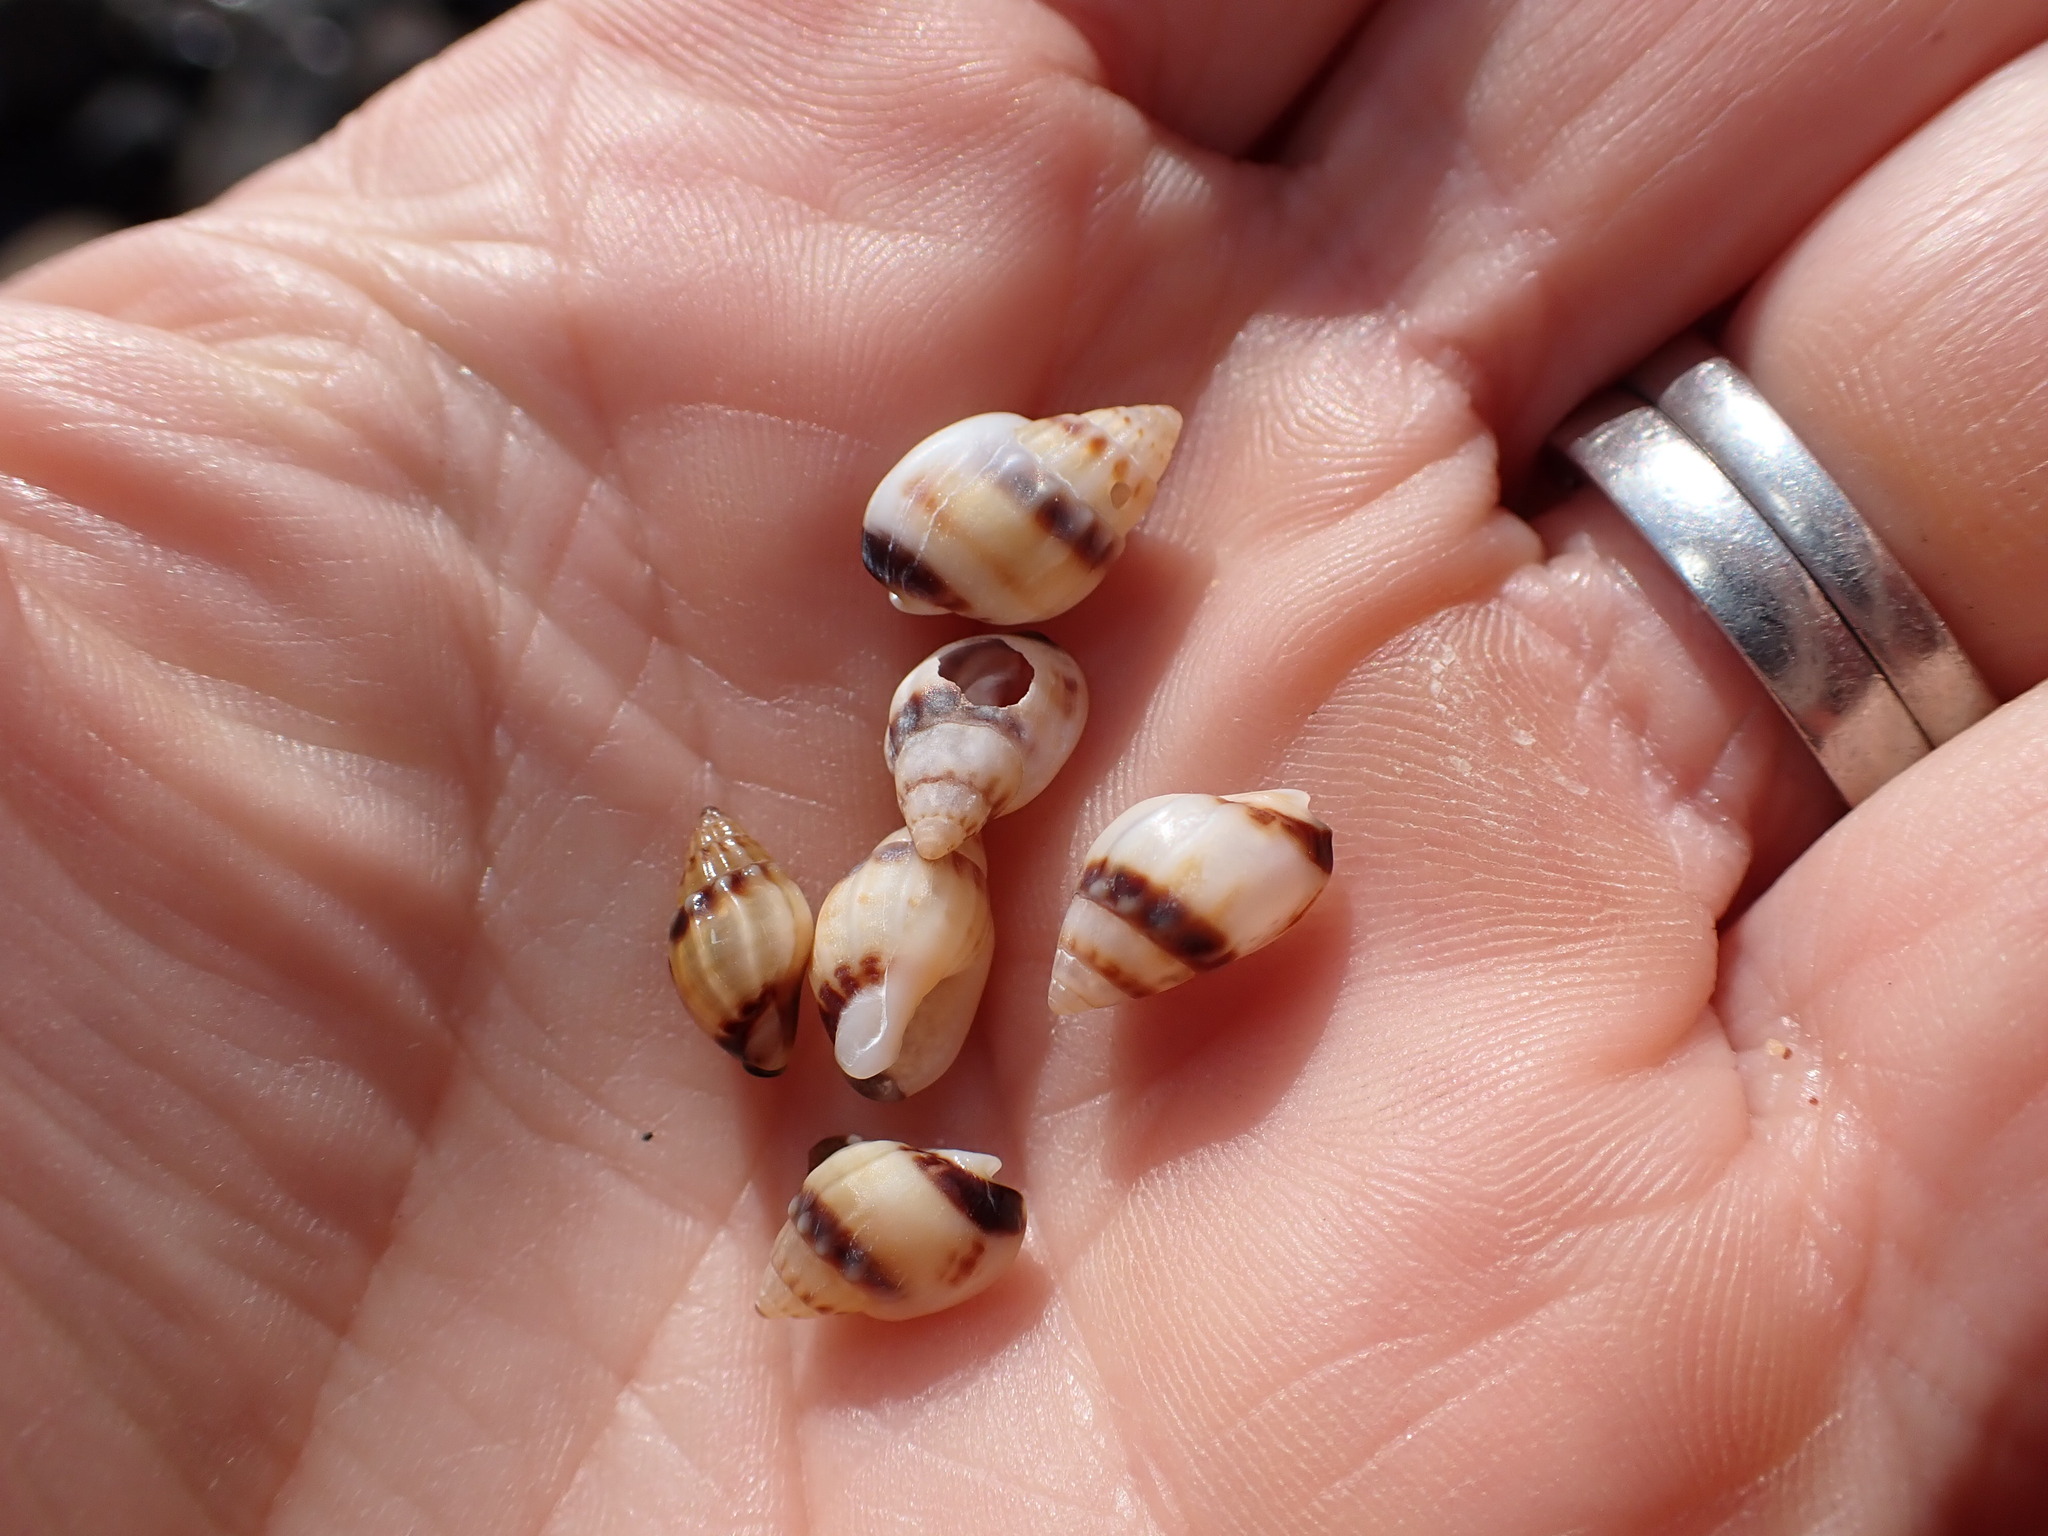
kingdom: Animalia
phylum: Mollusca
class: Gastropoda
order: Neogastropoda
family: Nassariidae
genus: Tritia
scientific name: Tritia burchardi
